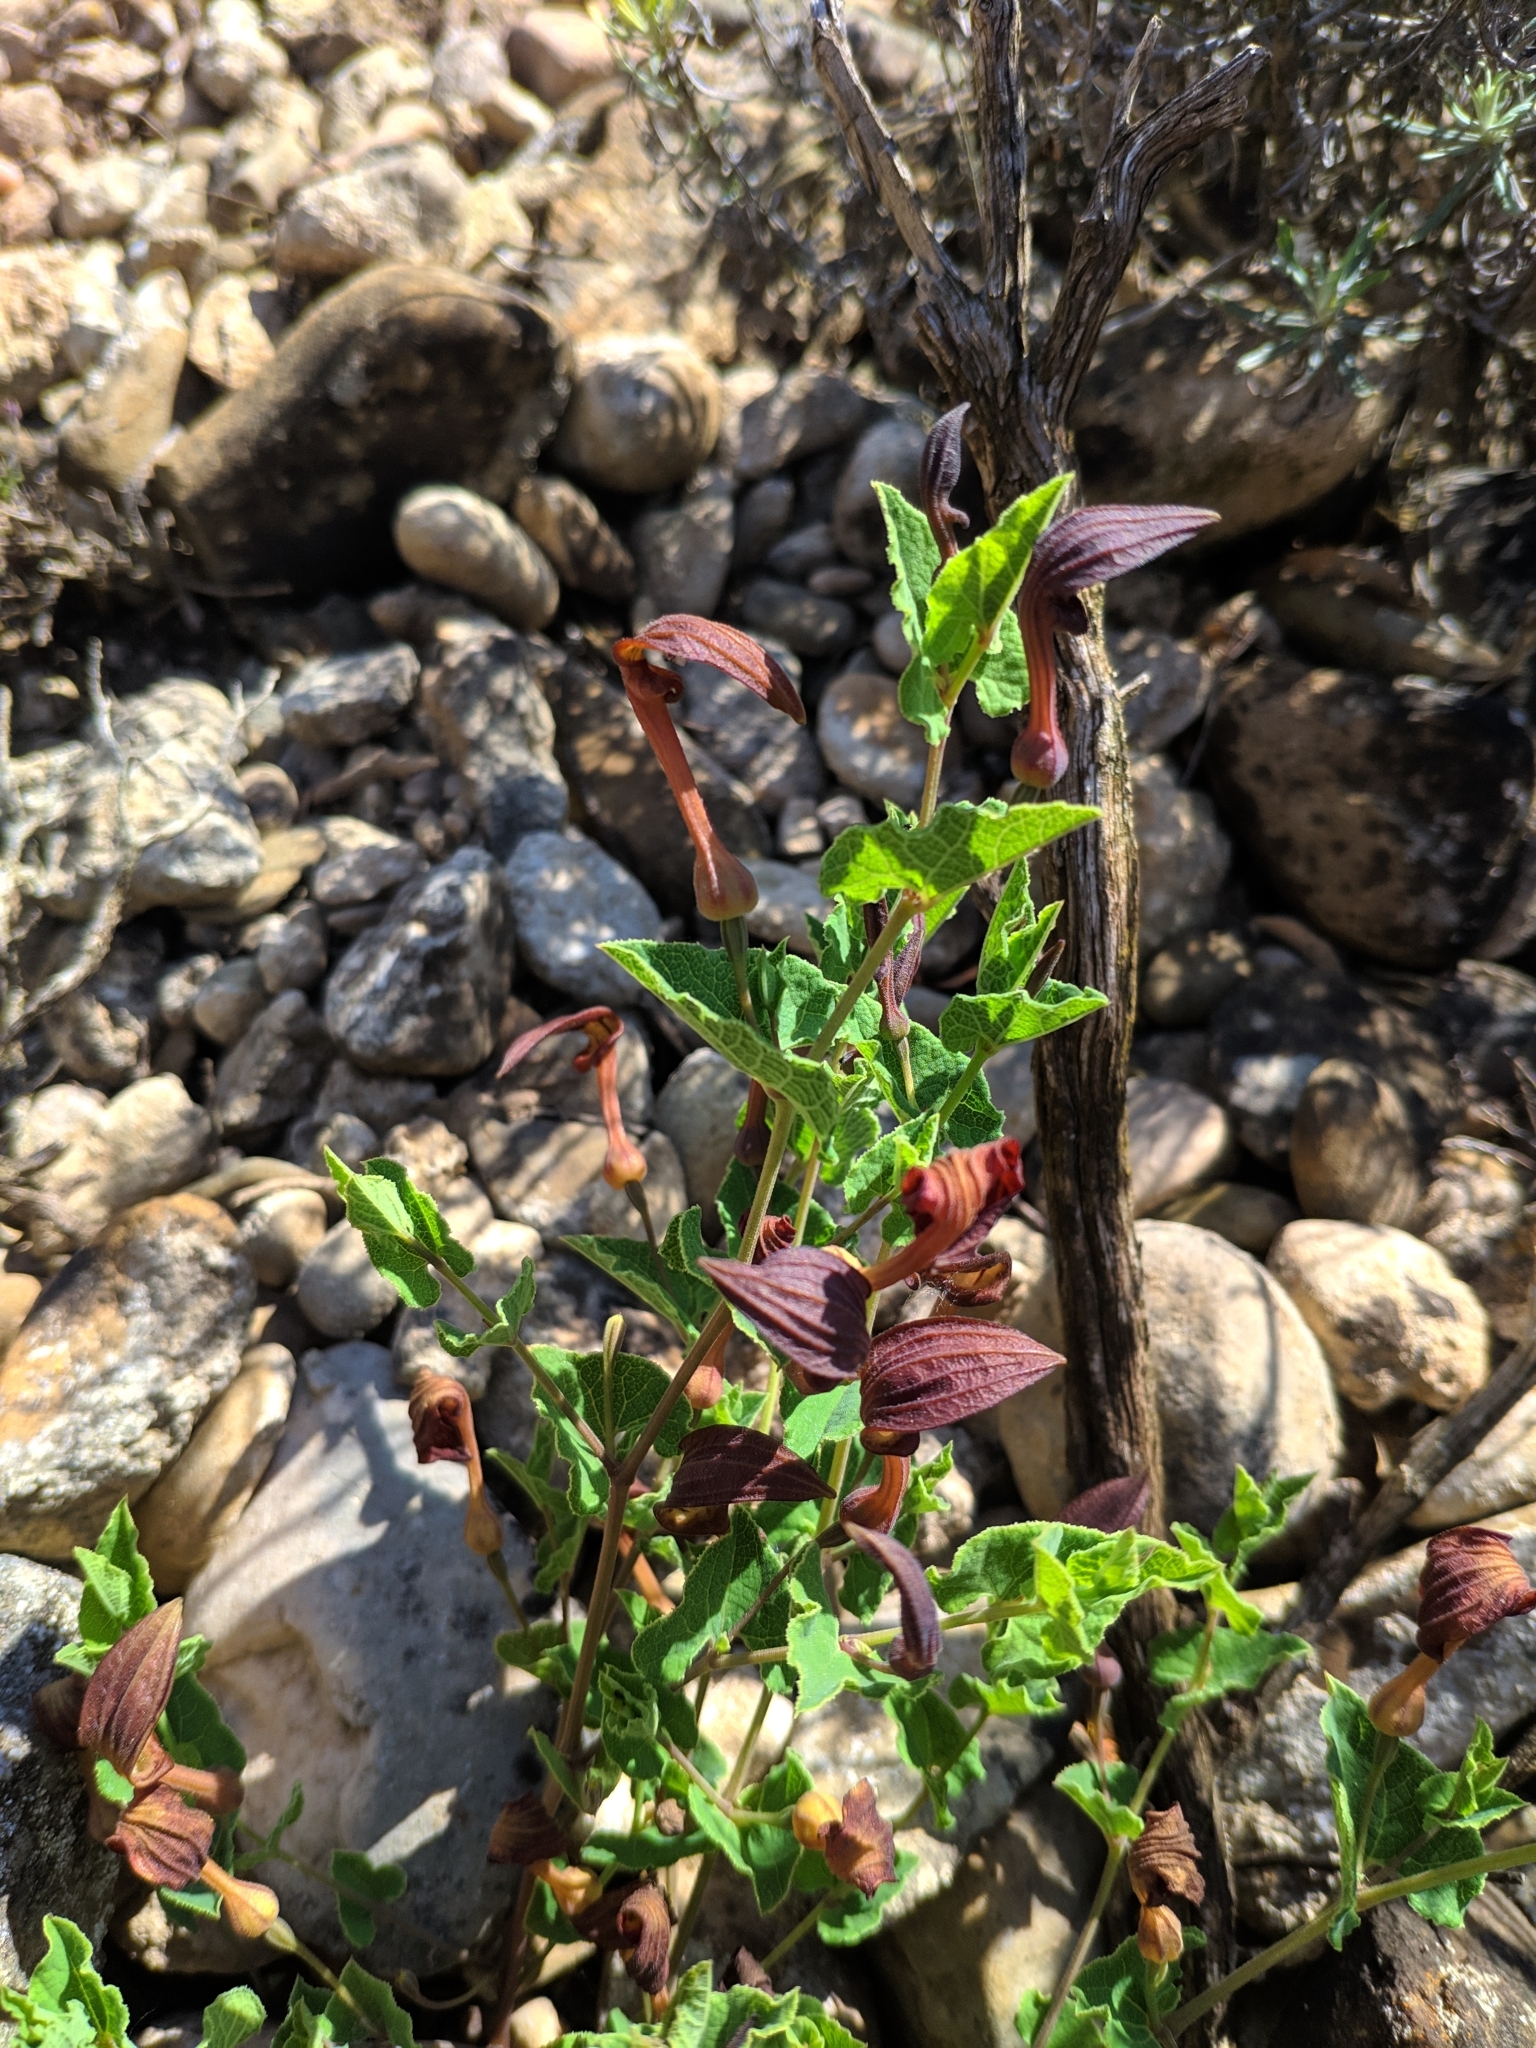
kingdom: Plantae
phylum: Tracheophyta
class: Magnoliopsida
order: Piperales
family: Aristolochiaceae
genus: Aristolochia
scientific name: Aristolochia pistolochia
